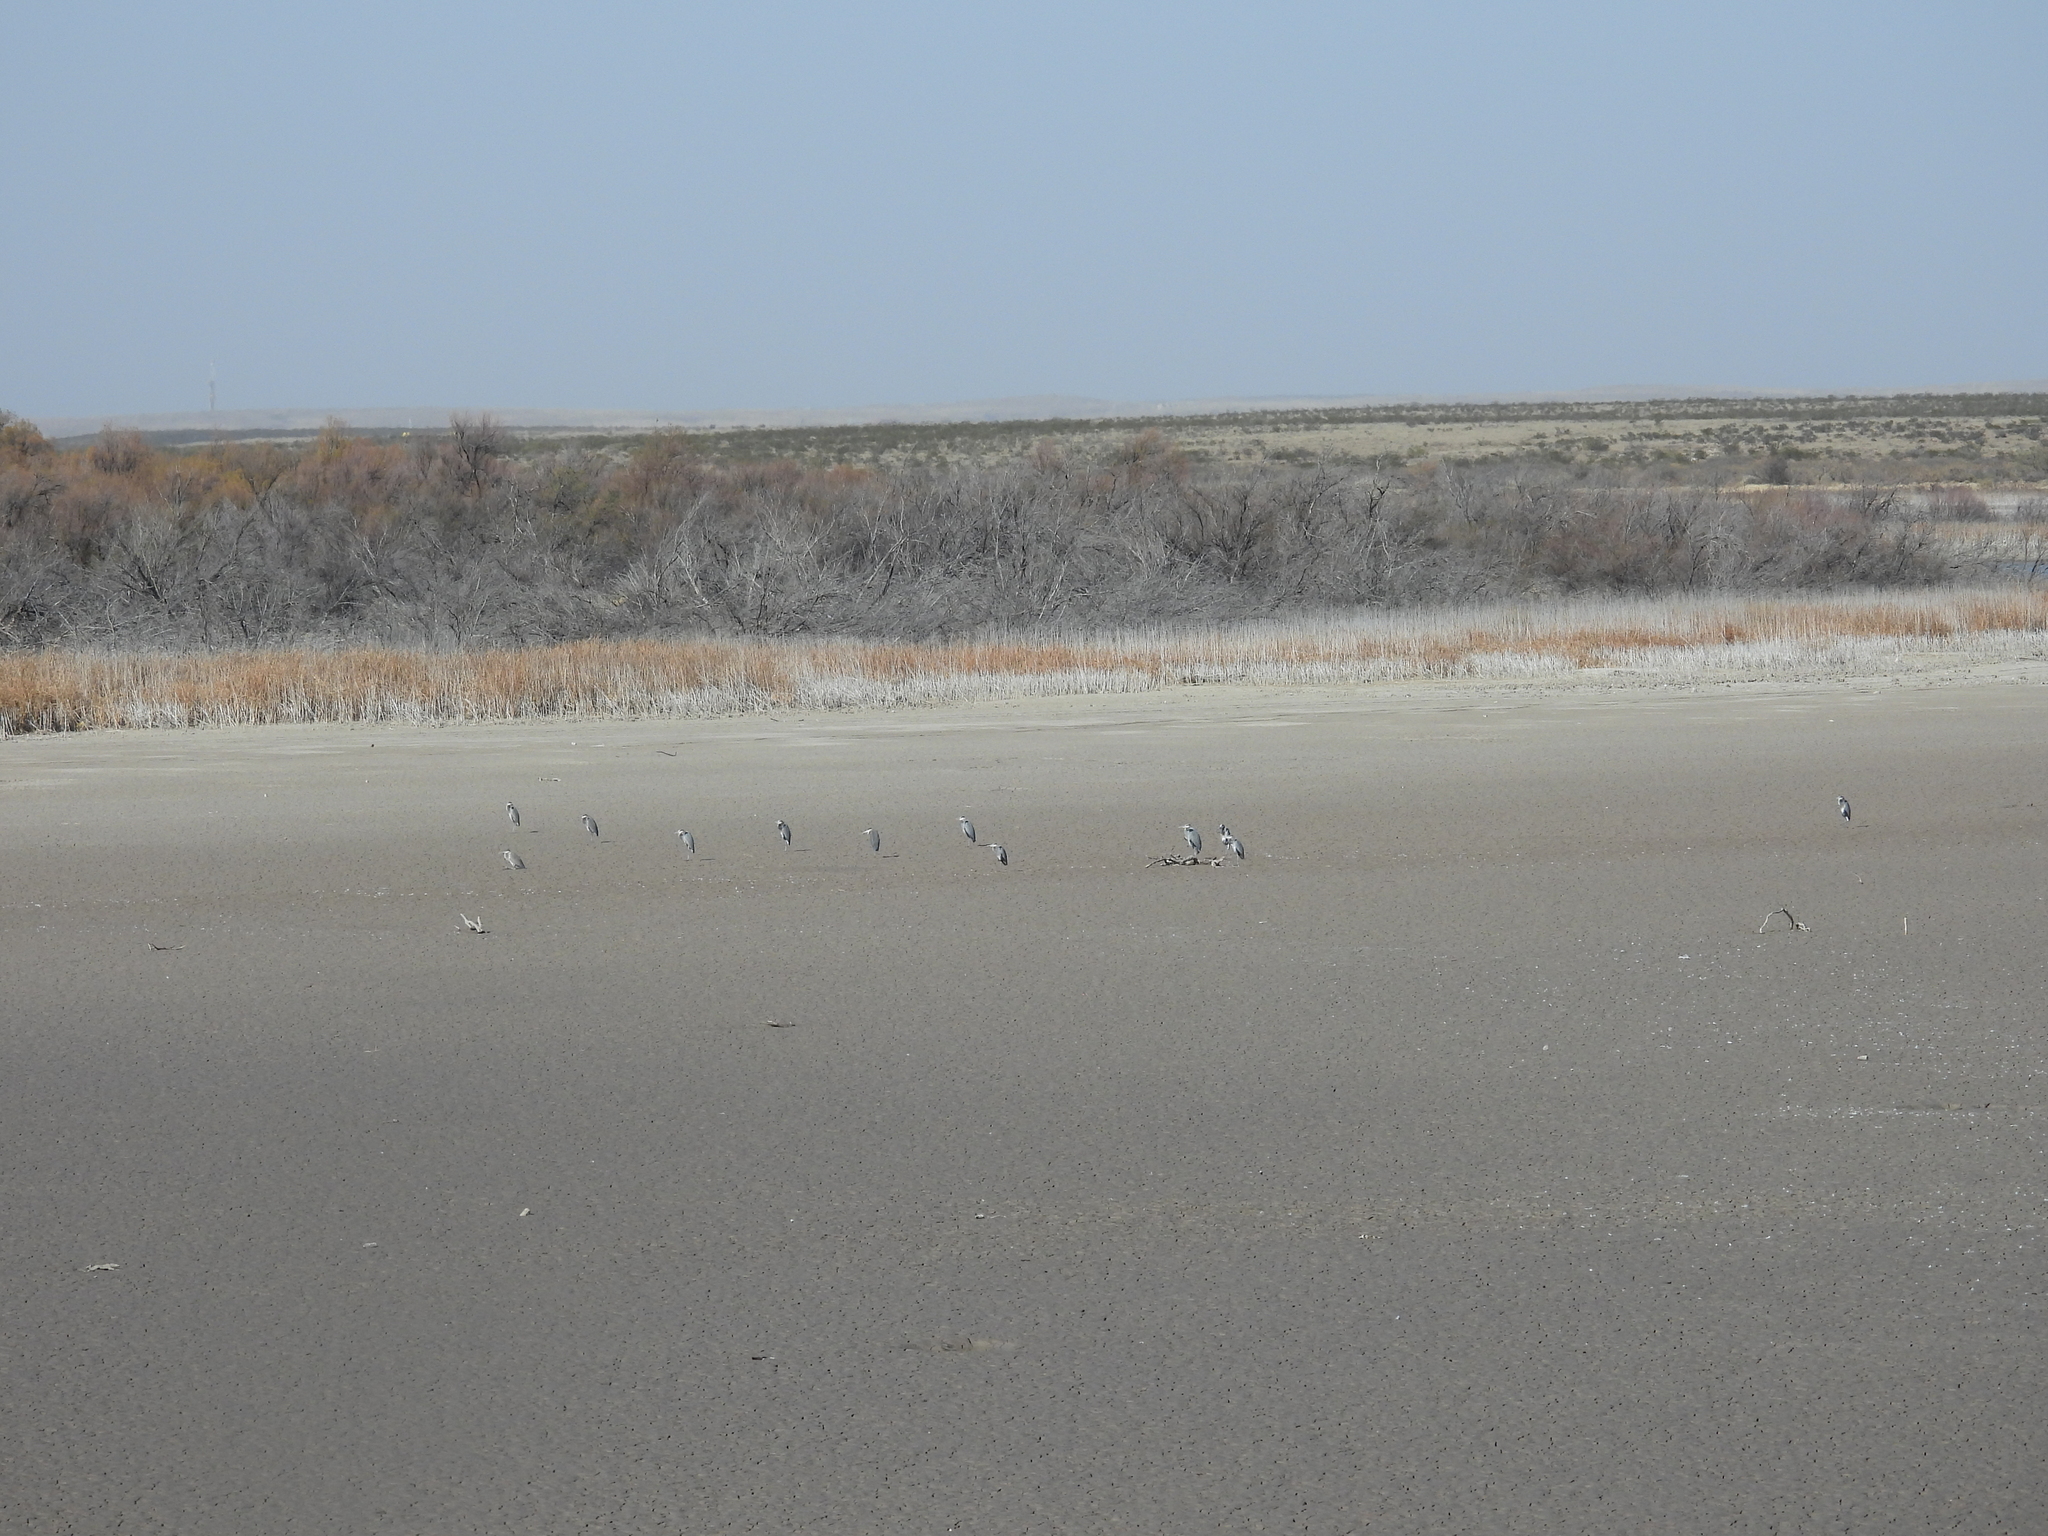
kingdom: Animalia
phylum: Chordata
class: Aves
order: Pelecaniformes
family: Ardeidae
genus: Ardea
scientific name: Ardea herodias
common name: Great blue heron
